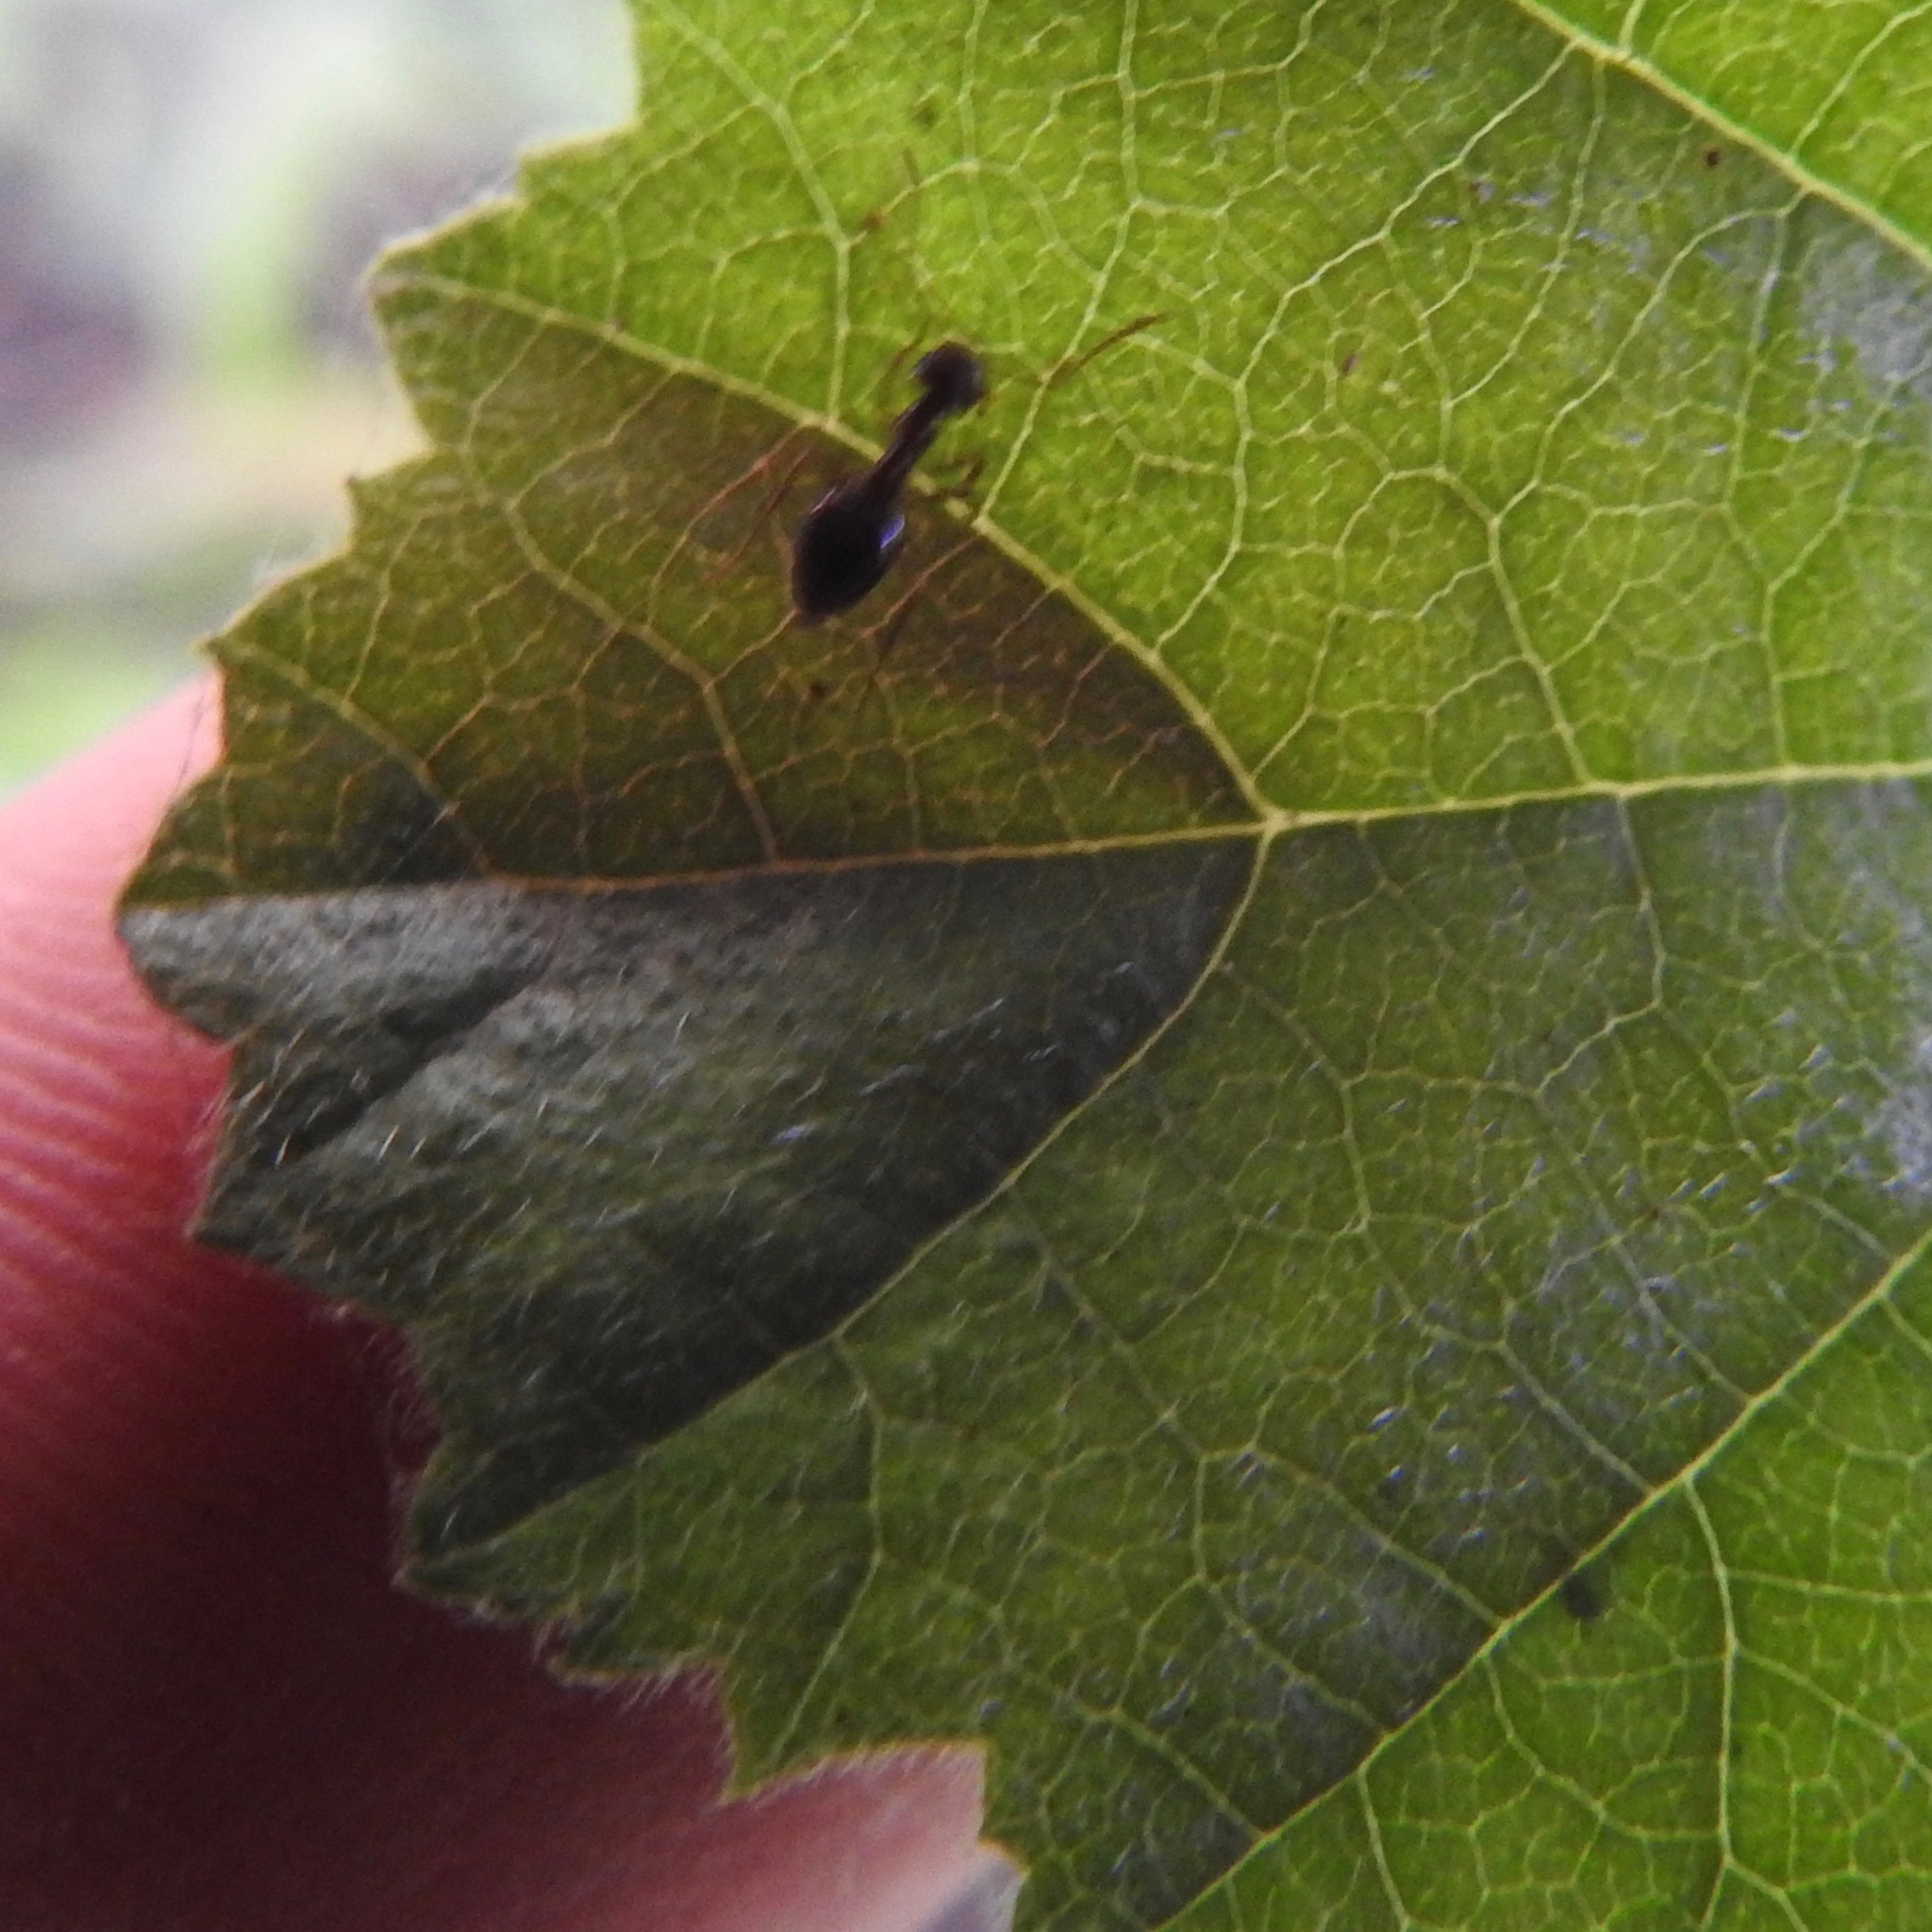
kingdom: Animalia
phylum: Arthropoda
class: Insecta
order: Hymenoptera
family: Formicidae
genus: Prenolepis
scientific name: Prenolepis imparis
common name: Small honey ant
